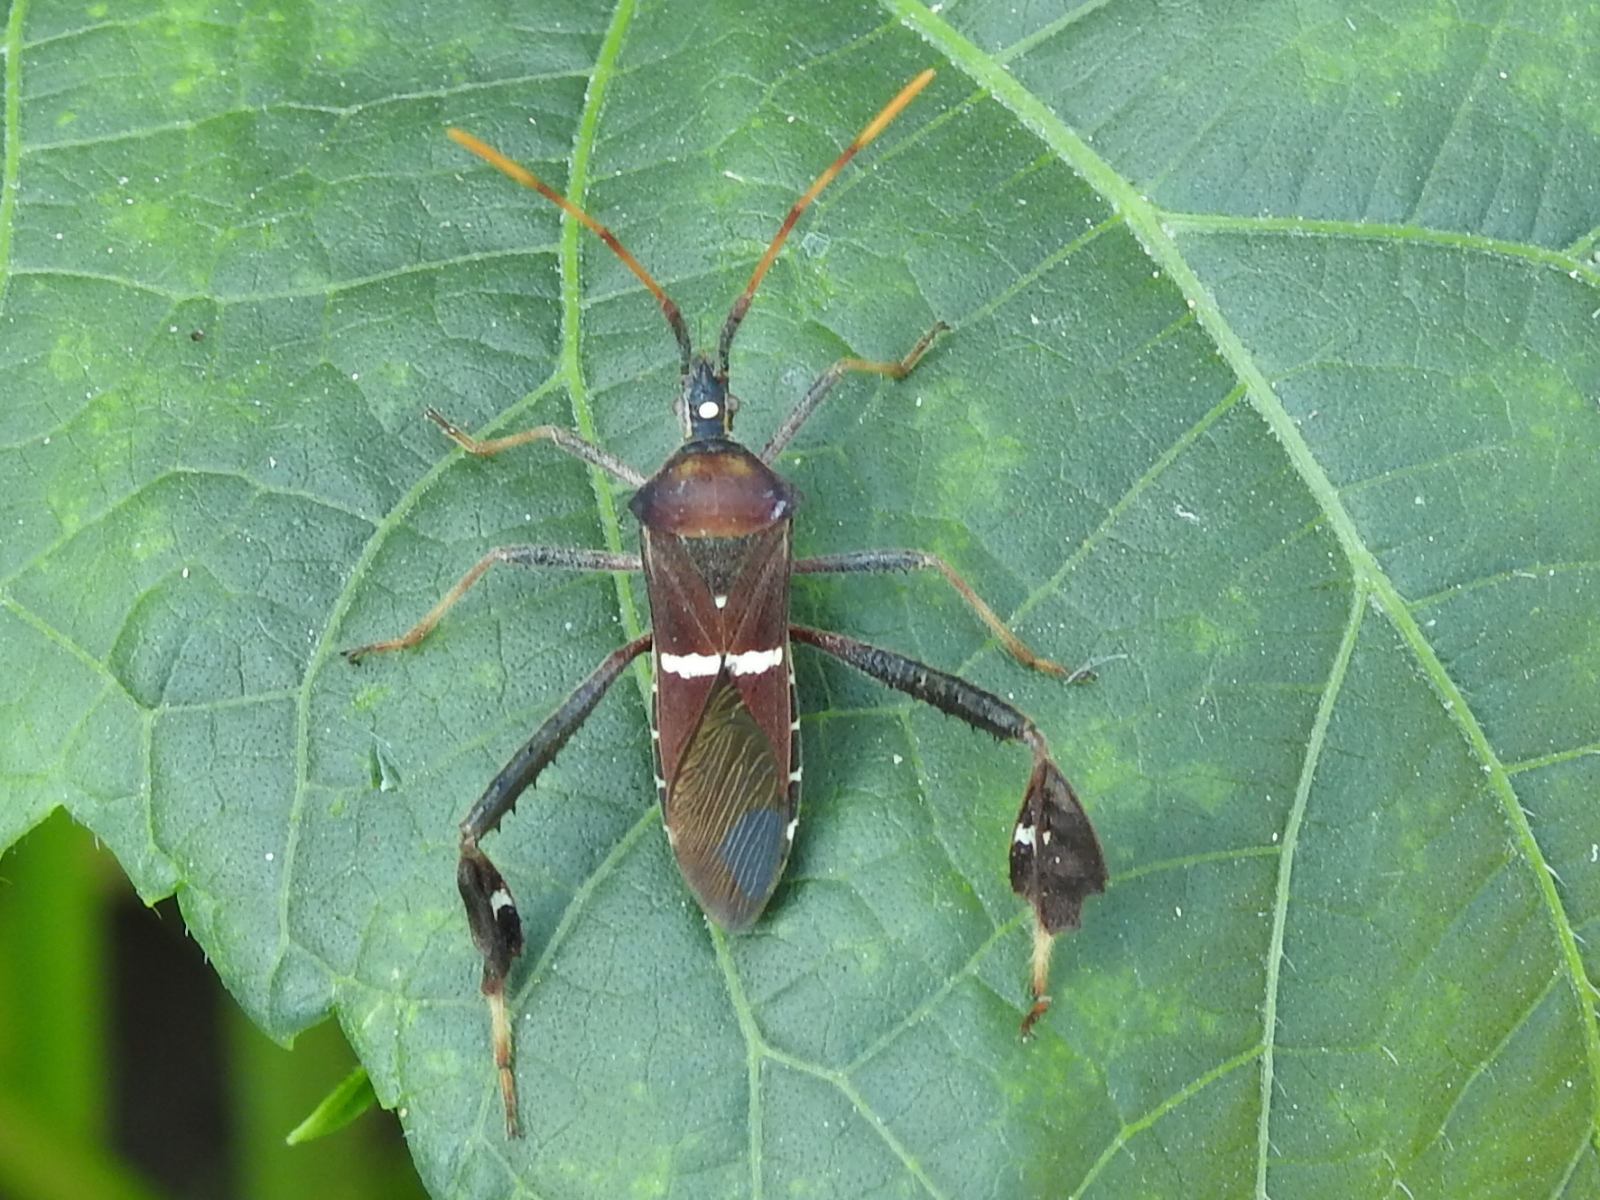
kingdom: Animalia
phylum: Arthropoda
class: Insecta
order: Hemiptera
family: Coreidae
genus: Leptoglossus
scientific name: Leptoglossus phyllopus
